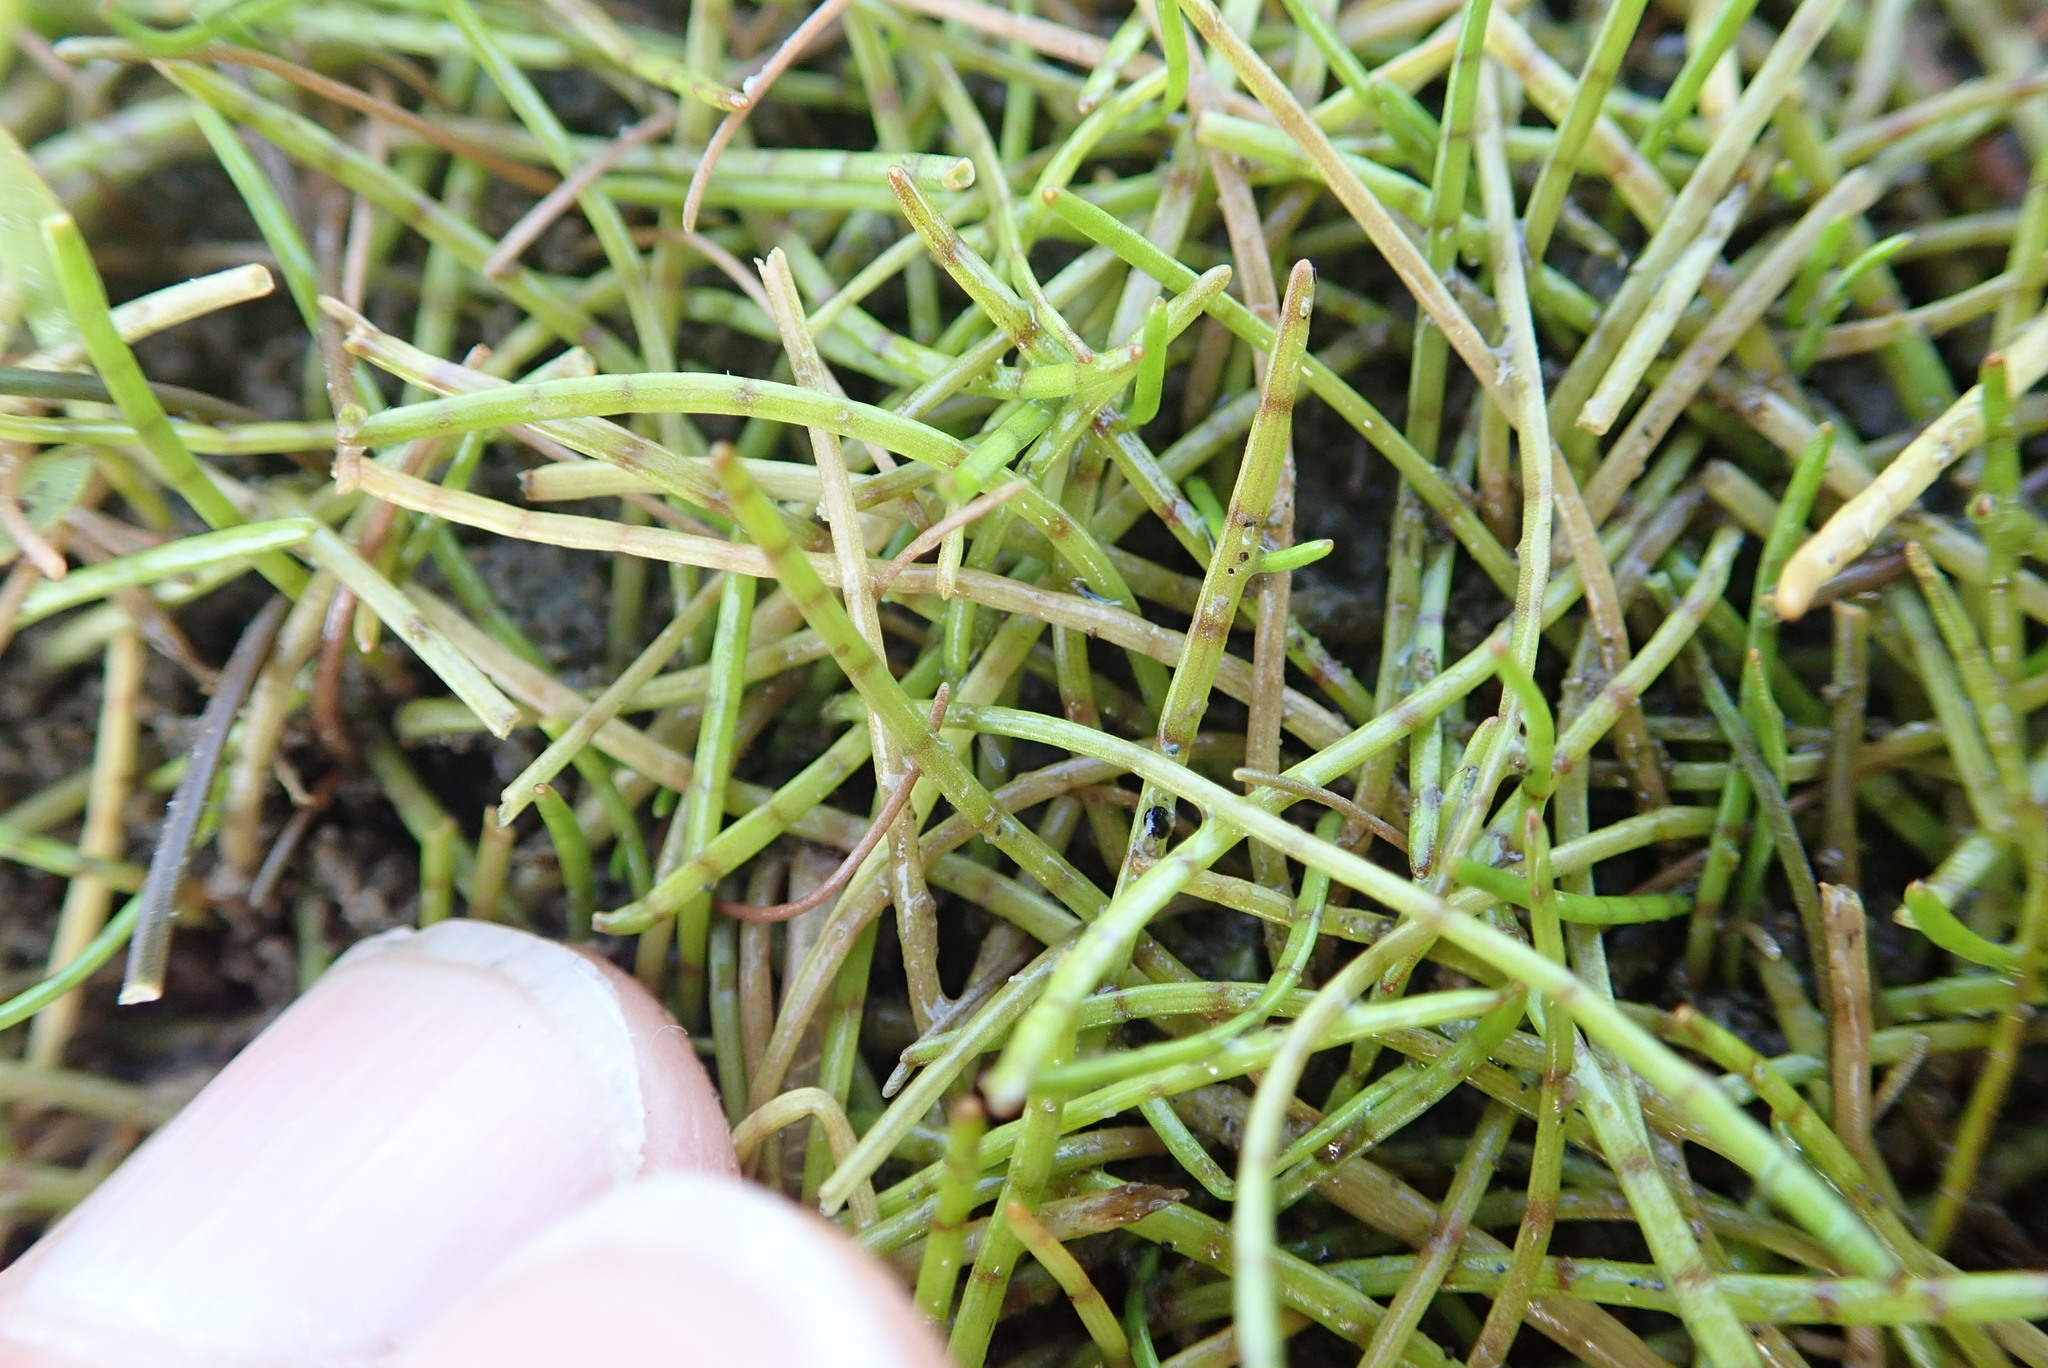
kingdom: Plantae
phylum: Tracheophyta
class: Magnoliopsida
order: Apiales
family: Apiaceae
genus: Lilaeopsis
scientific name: Lilaeopsis novae-zelandiae
